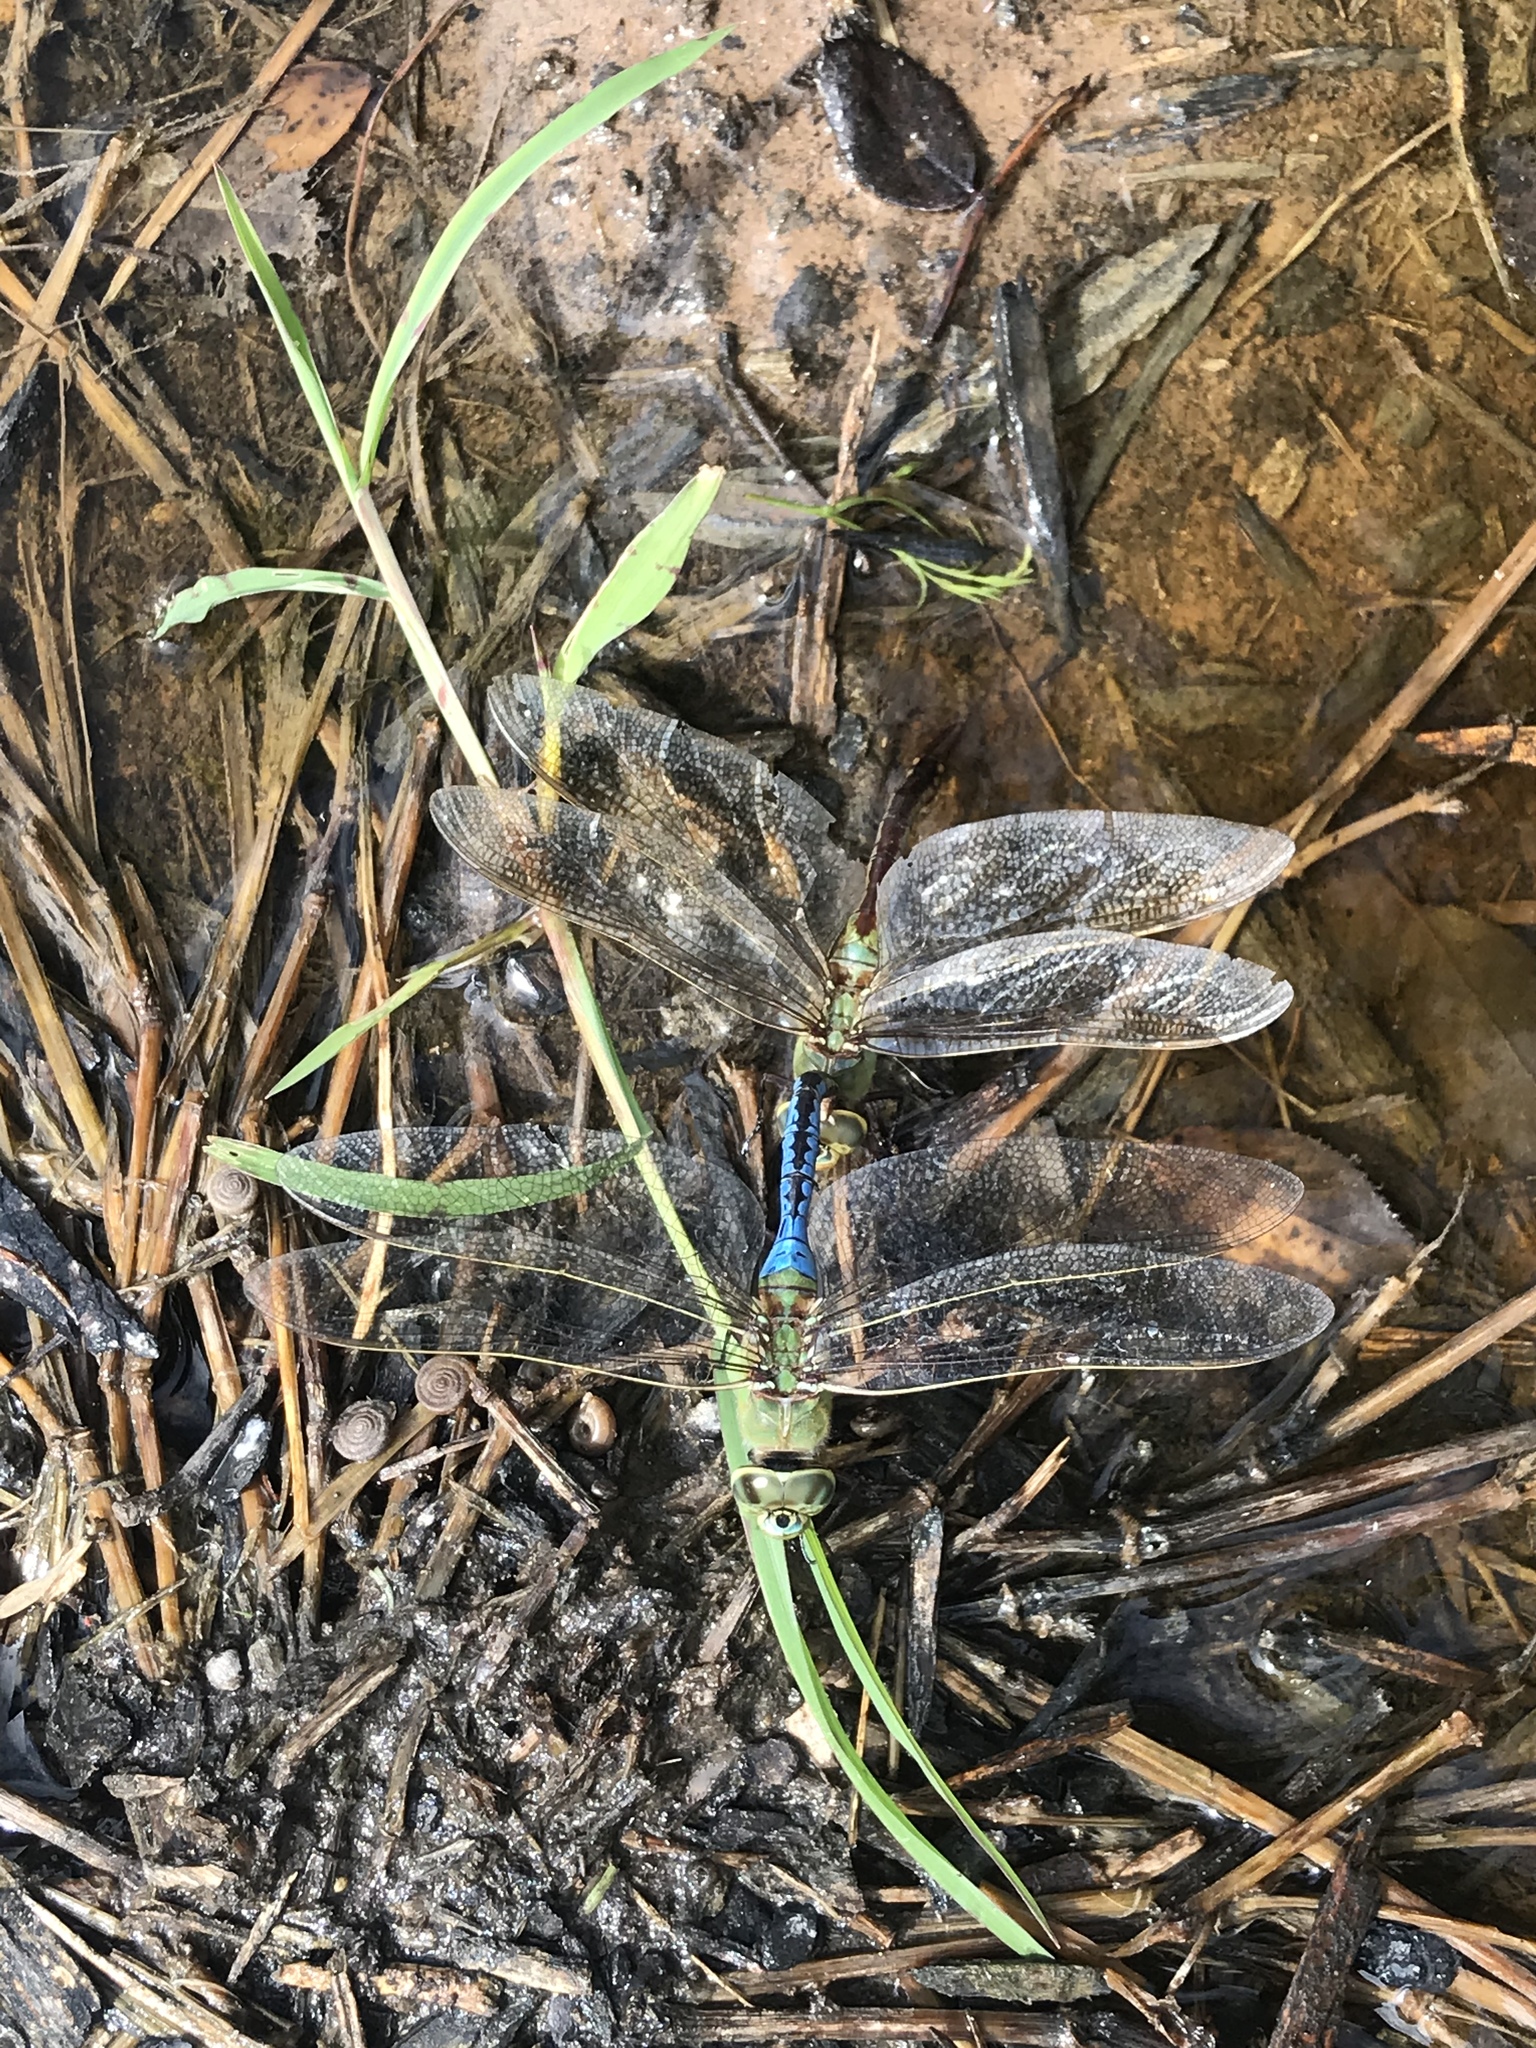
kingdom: Animalia
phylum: Arthropoda
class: Insecta
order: Odonata
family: Aeshnidae
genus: Anax
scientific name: Anax junius
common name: Common green darner
